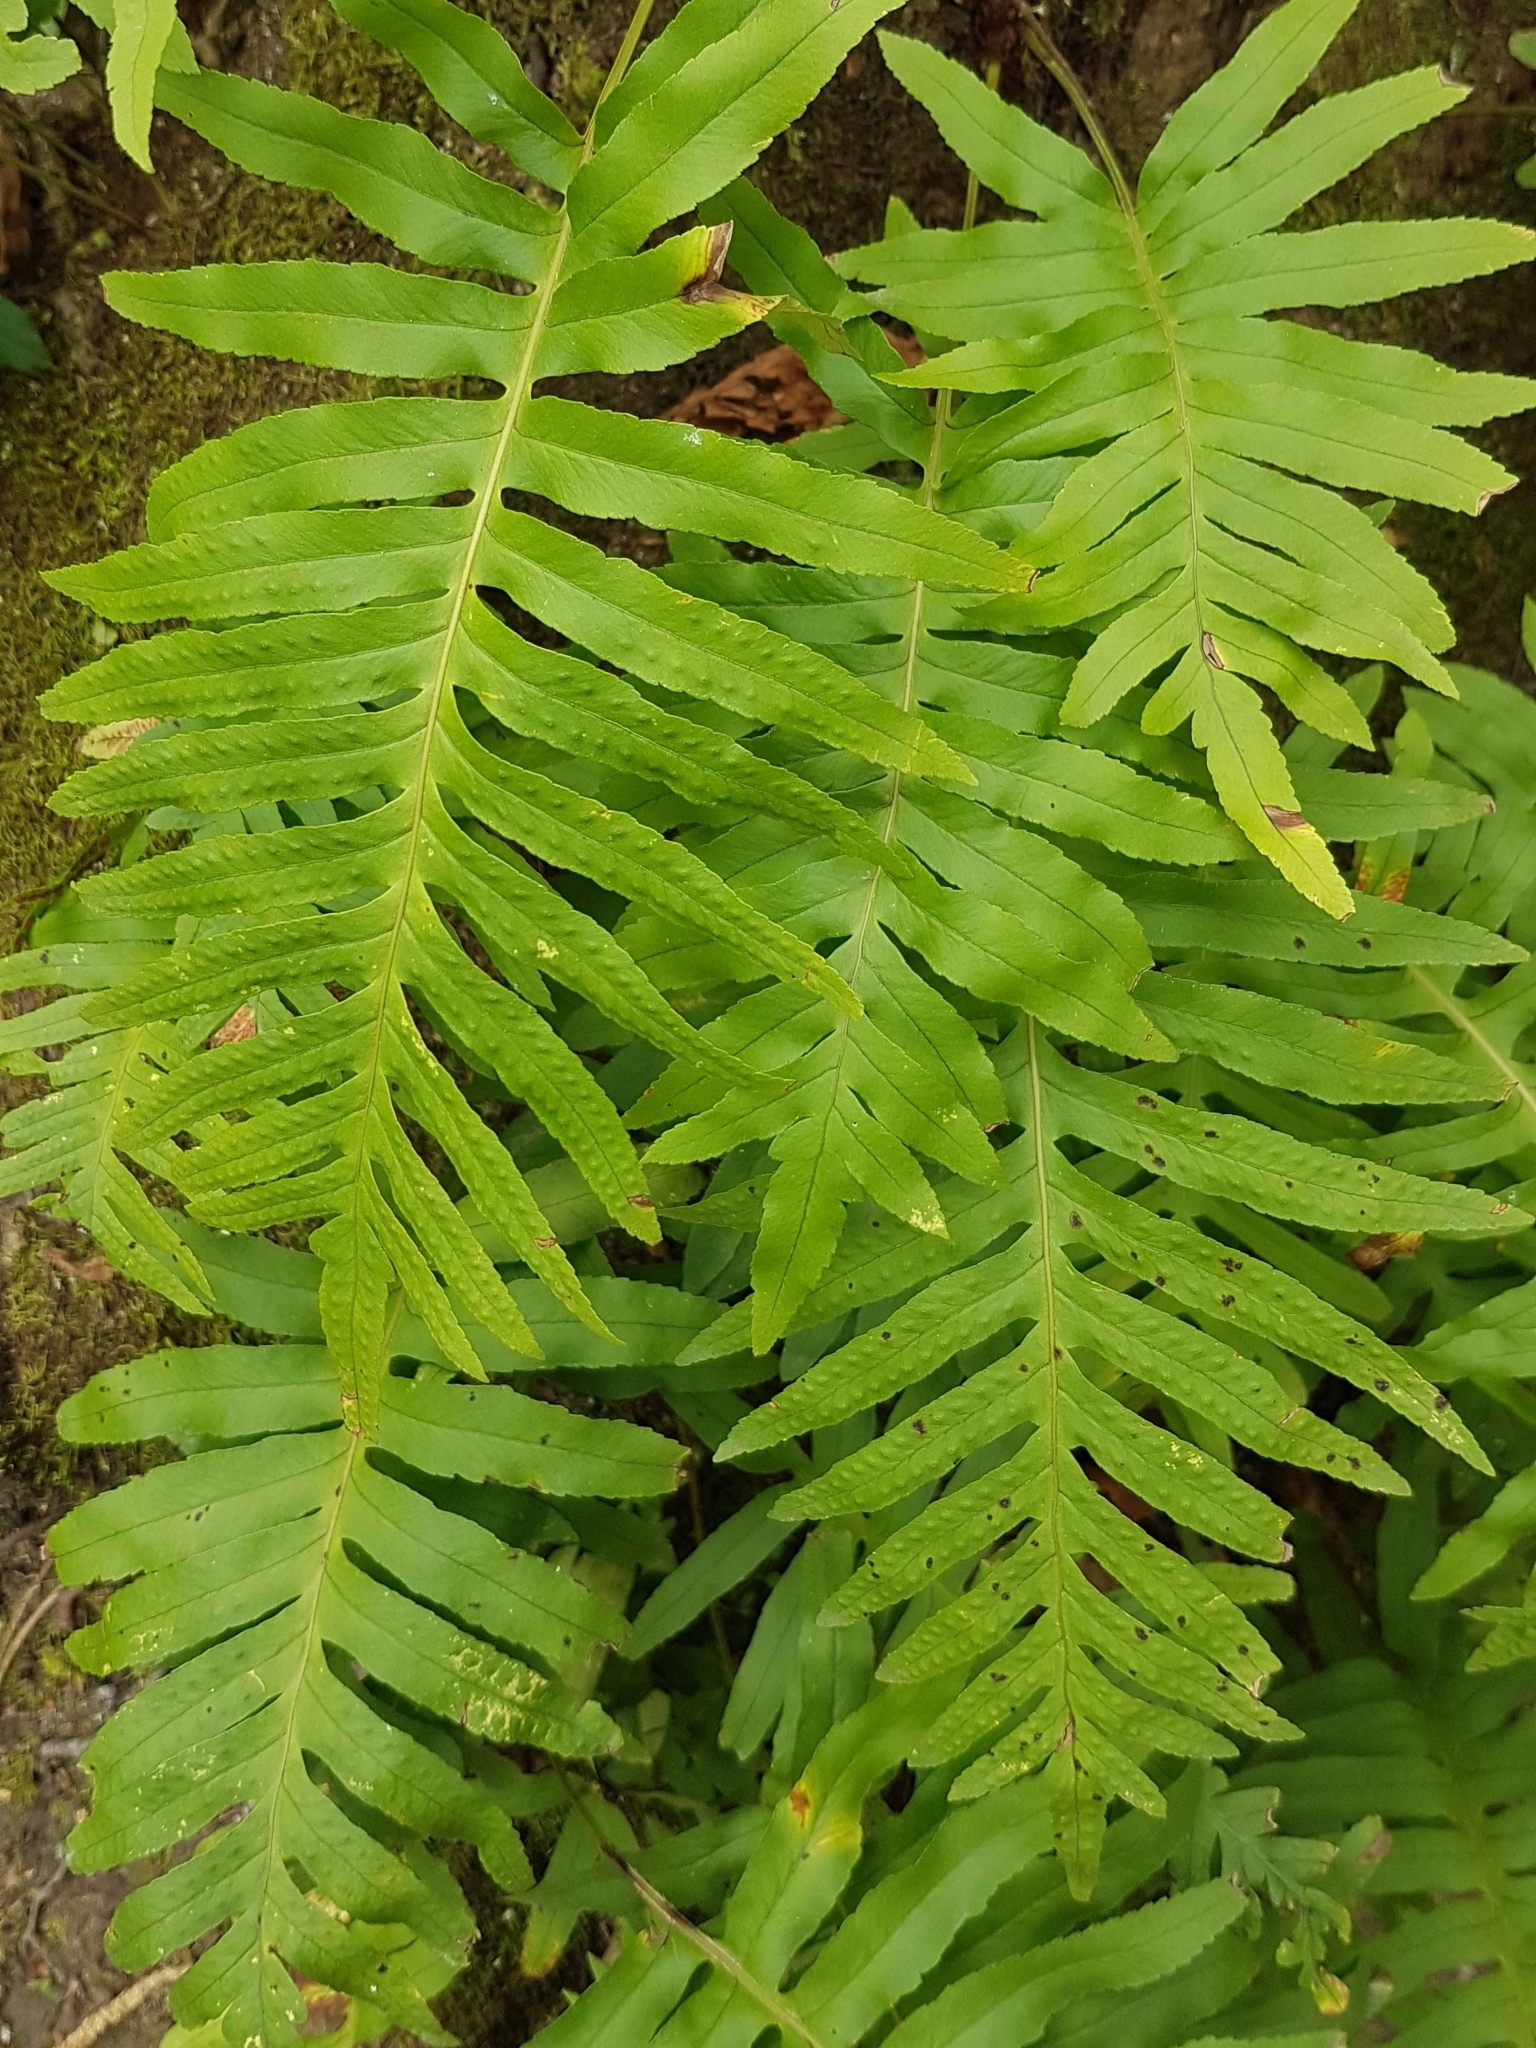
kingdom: Plantae
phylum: Tracheophyta
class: Polypodiopsida
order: Polypodiales
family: Polypodiaceae
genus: Polypodium
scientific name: Polypodium cambricum
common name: Southern polypody
